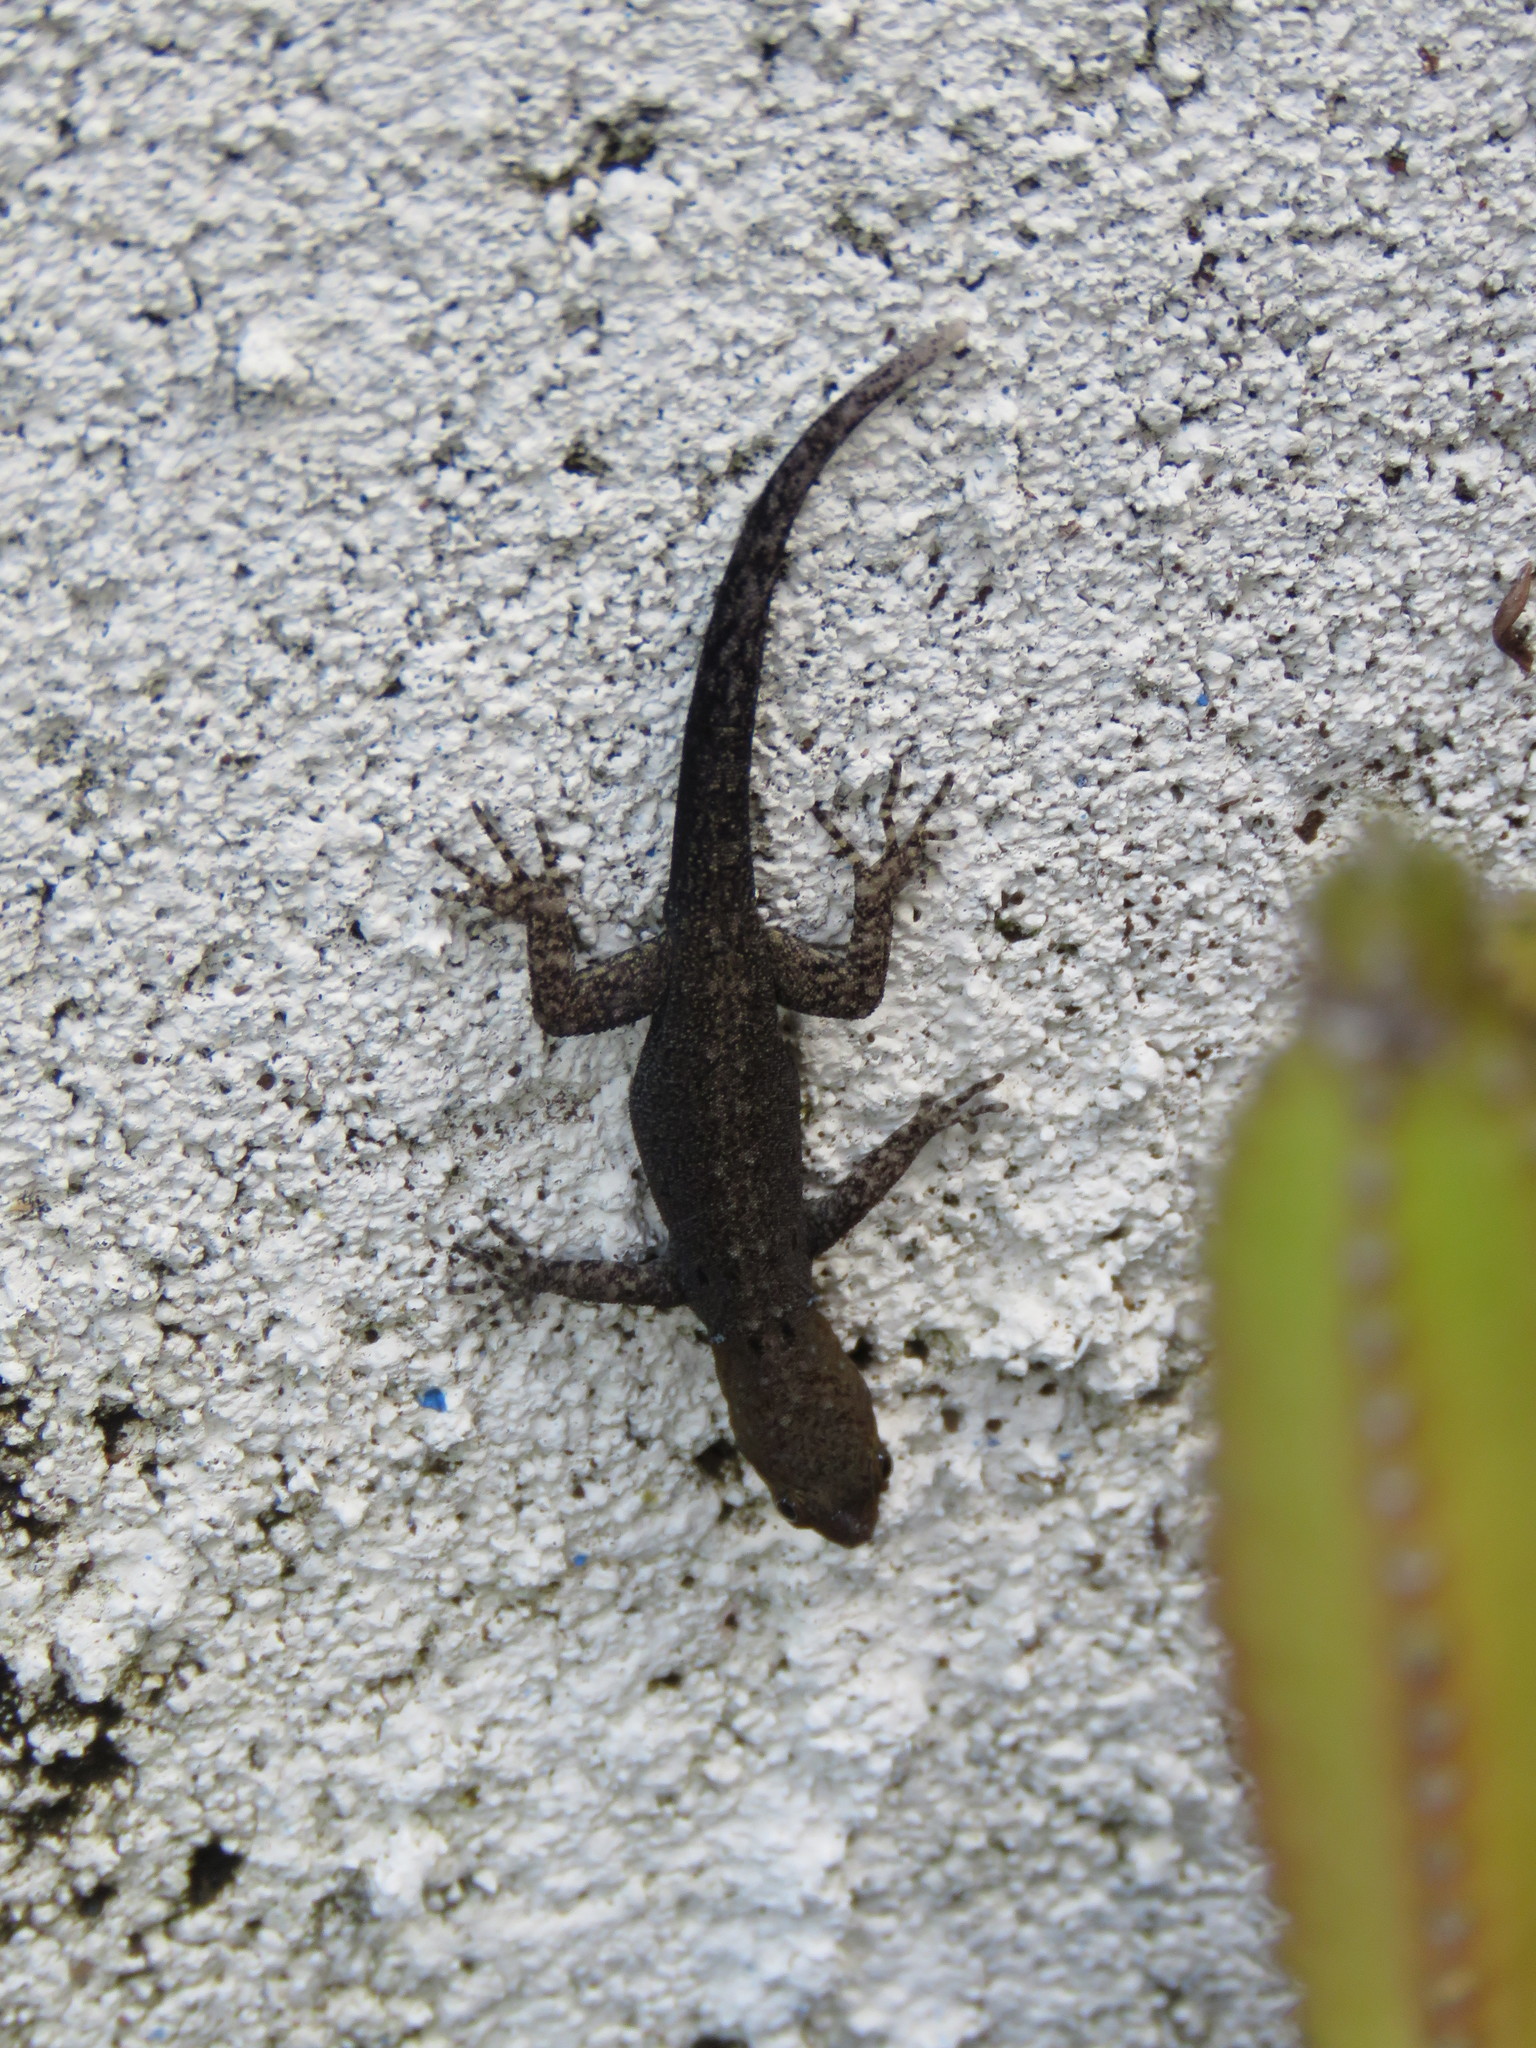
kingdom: Animalia
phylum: Chordata
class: Squamata
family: Sphaerodactylidae
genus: Gonatodes
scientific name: Gonatodes albogularis
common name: Yellow-headed gecko
